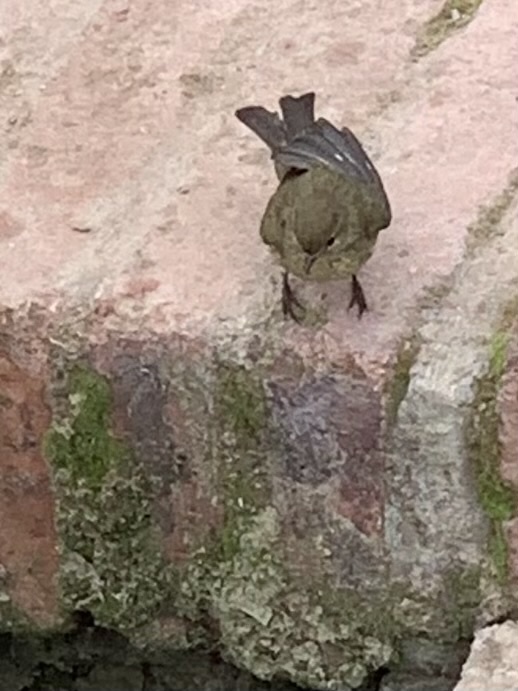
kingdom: Animalia
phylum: Chordata
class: Aves
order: Passeriformes
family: Phylloscopidae
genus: Phylloscopus
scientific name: Phylloscopus collybita
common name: Common chiffchaff
